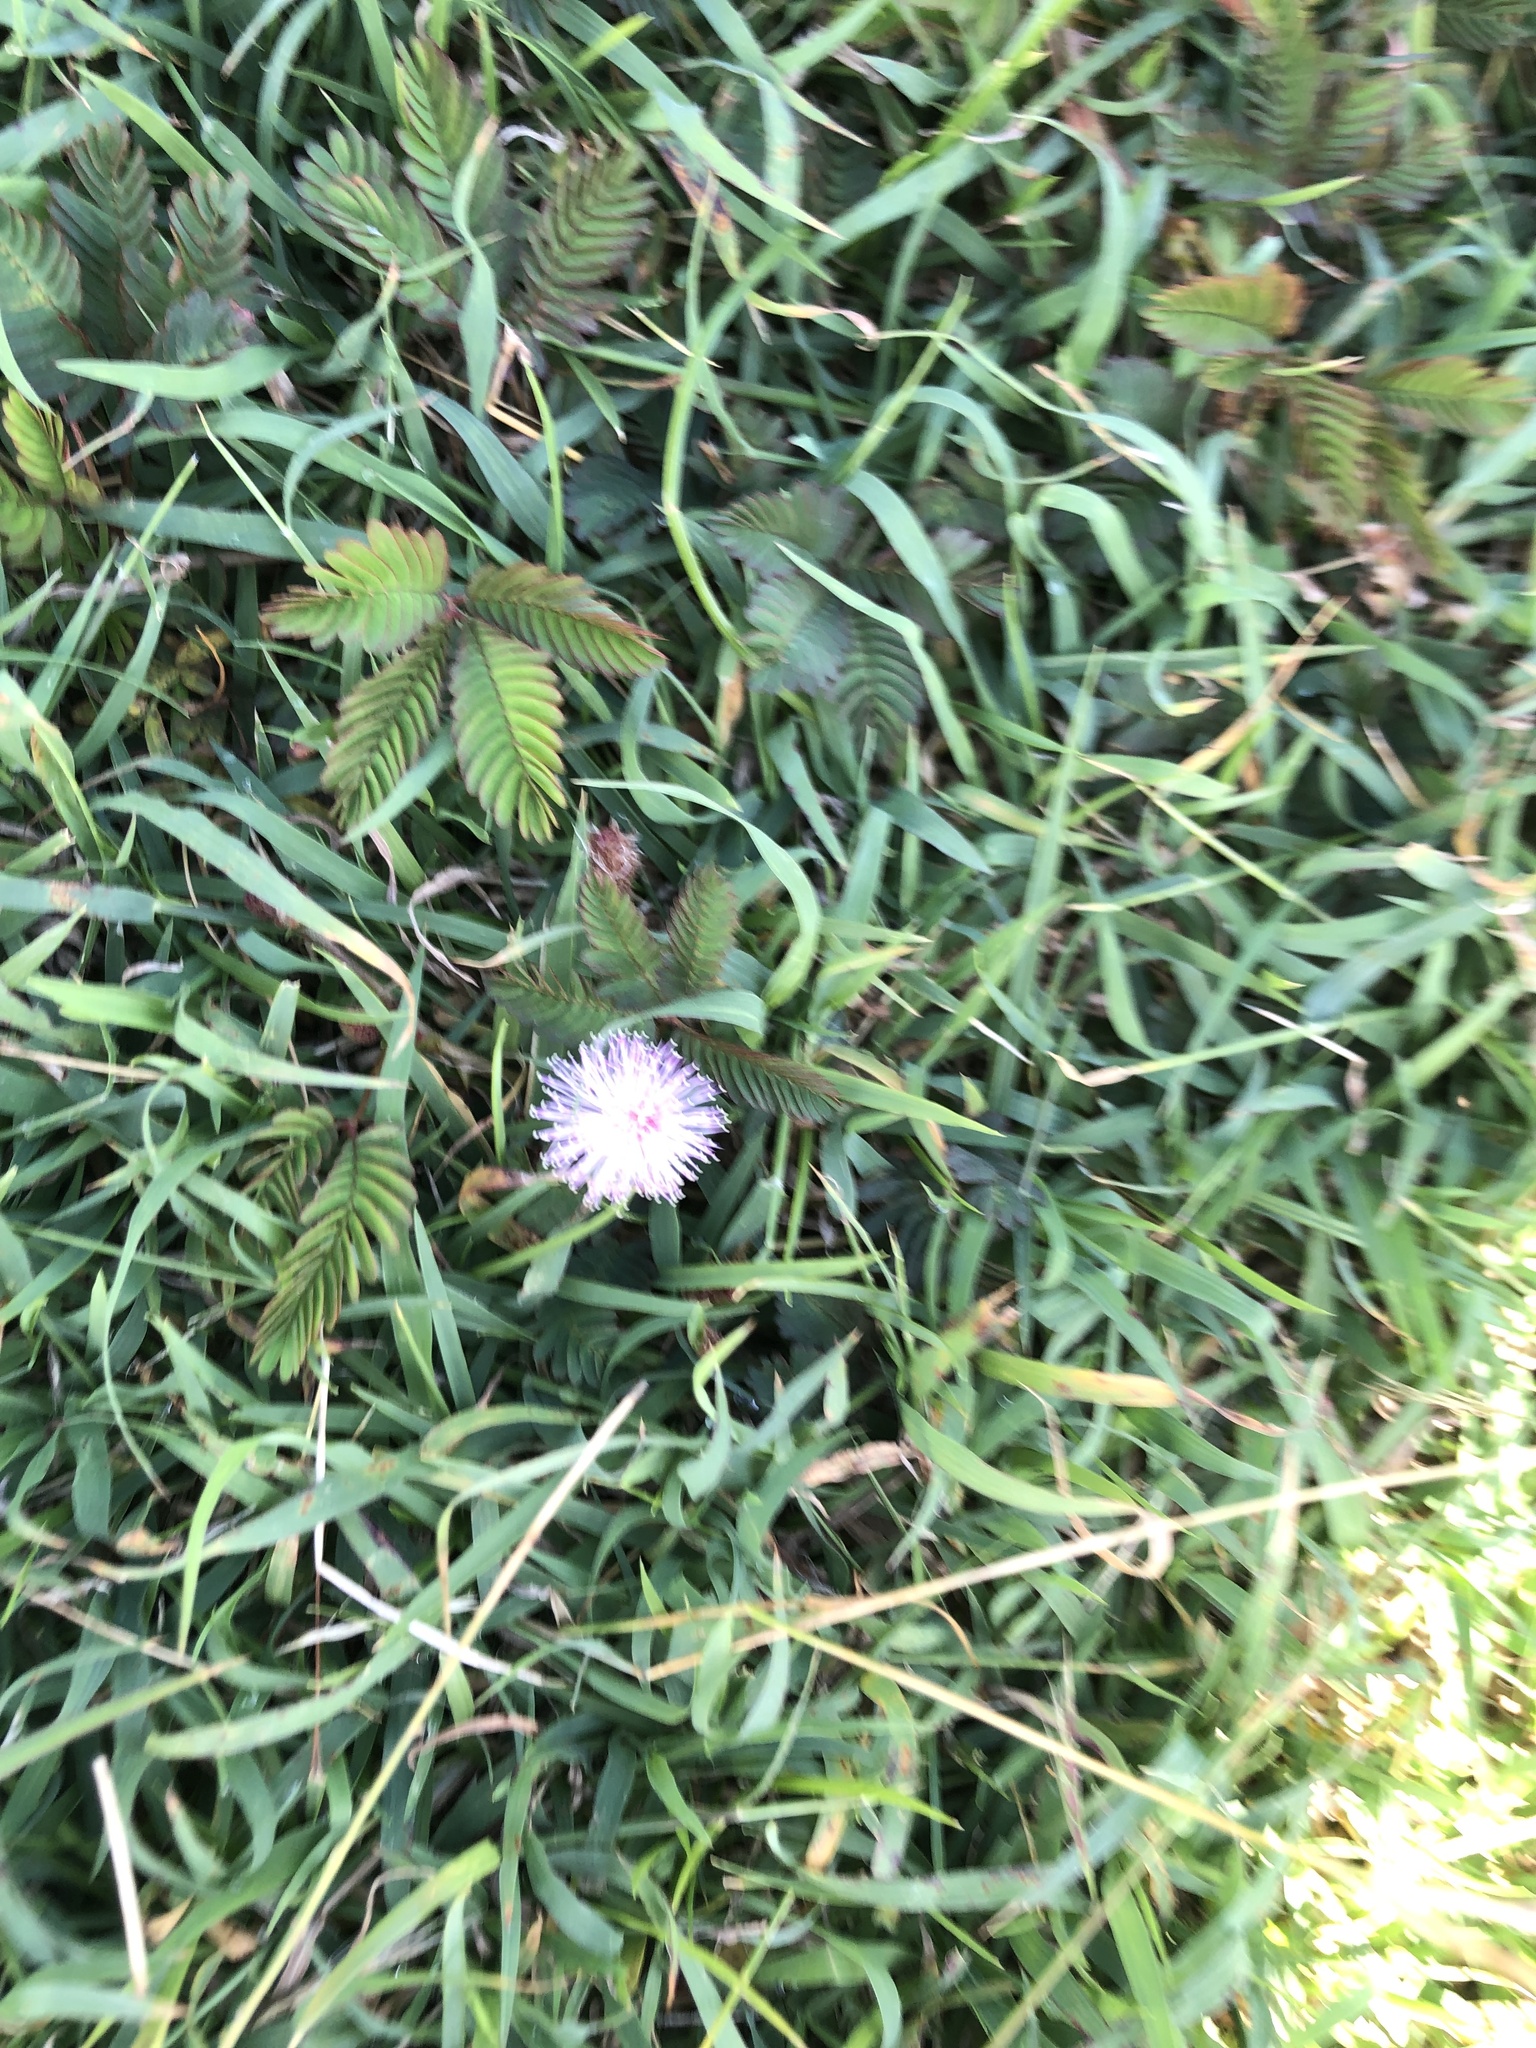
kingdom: Plantae
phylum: Tracheophyta
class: Magnoliopsida
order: Fabales
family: Fabaceae
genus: Mimosa
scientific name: Mimosa pudica
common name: Sensitive plant
